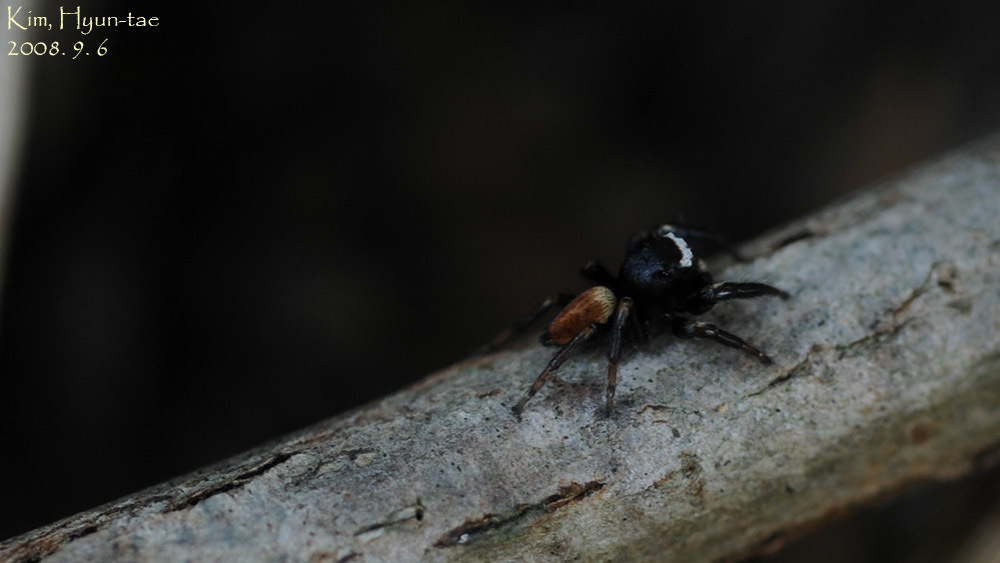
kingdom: Animalia
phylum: Arthropoda
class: Arachnida
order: Araneae
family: Salticidae
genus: Evarcha
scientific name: Evarcha albaria
